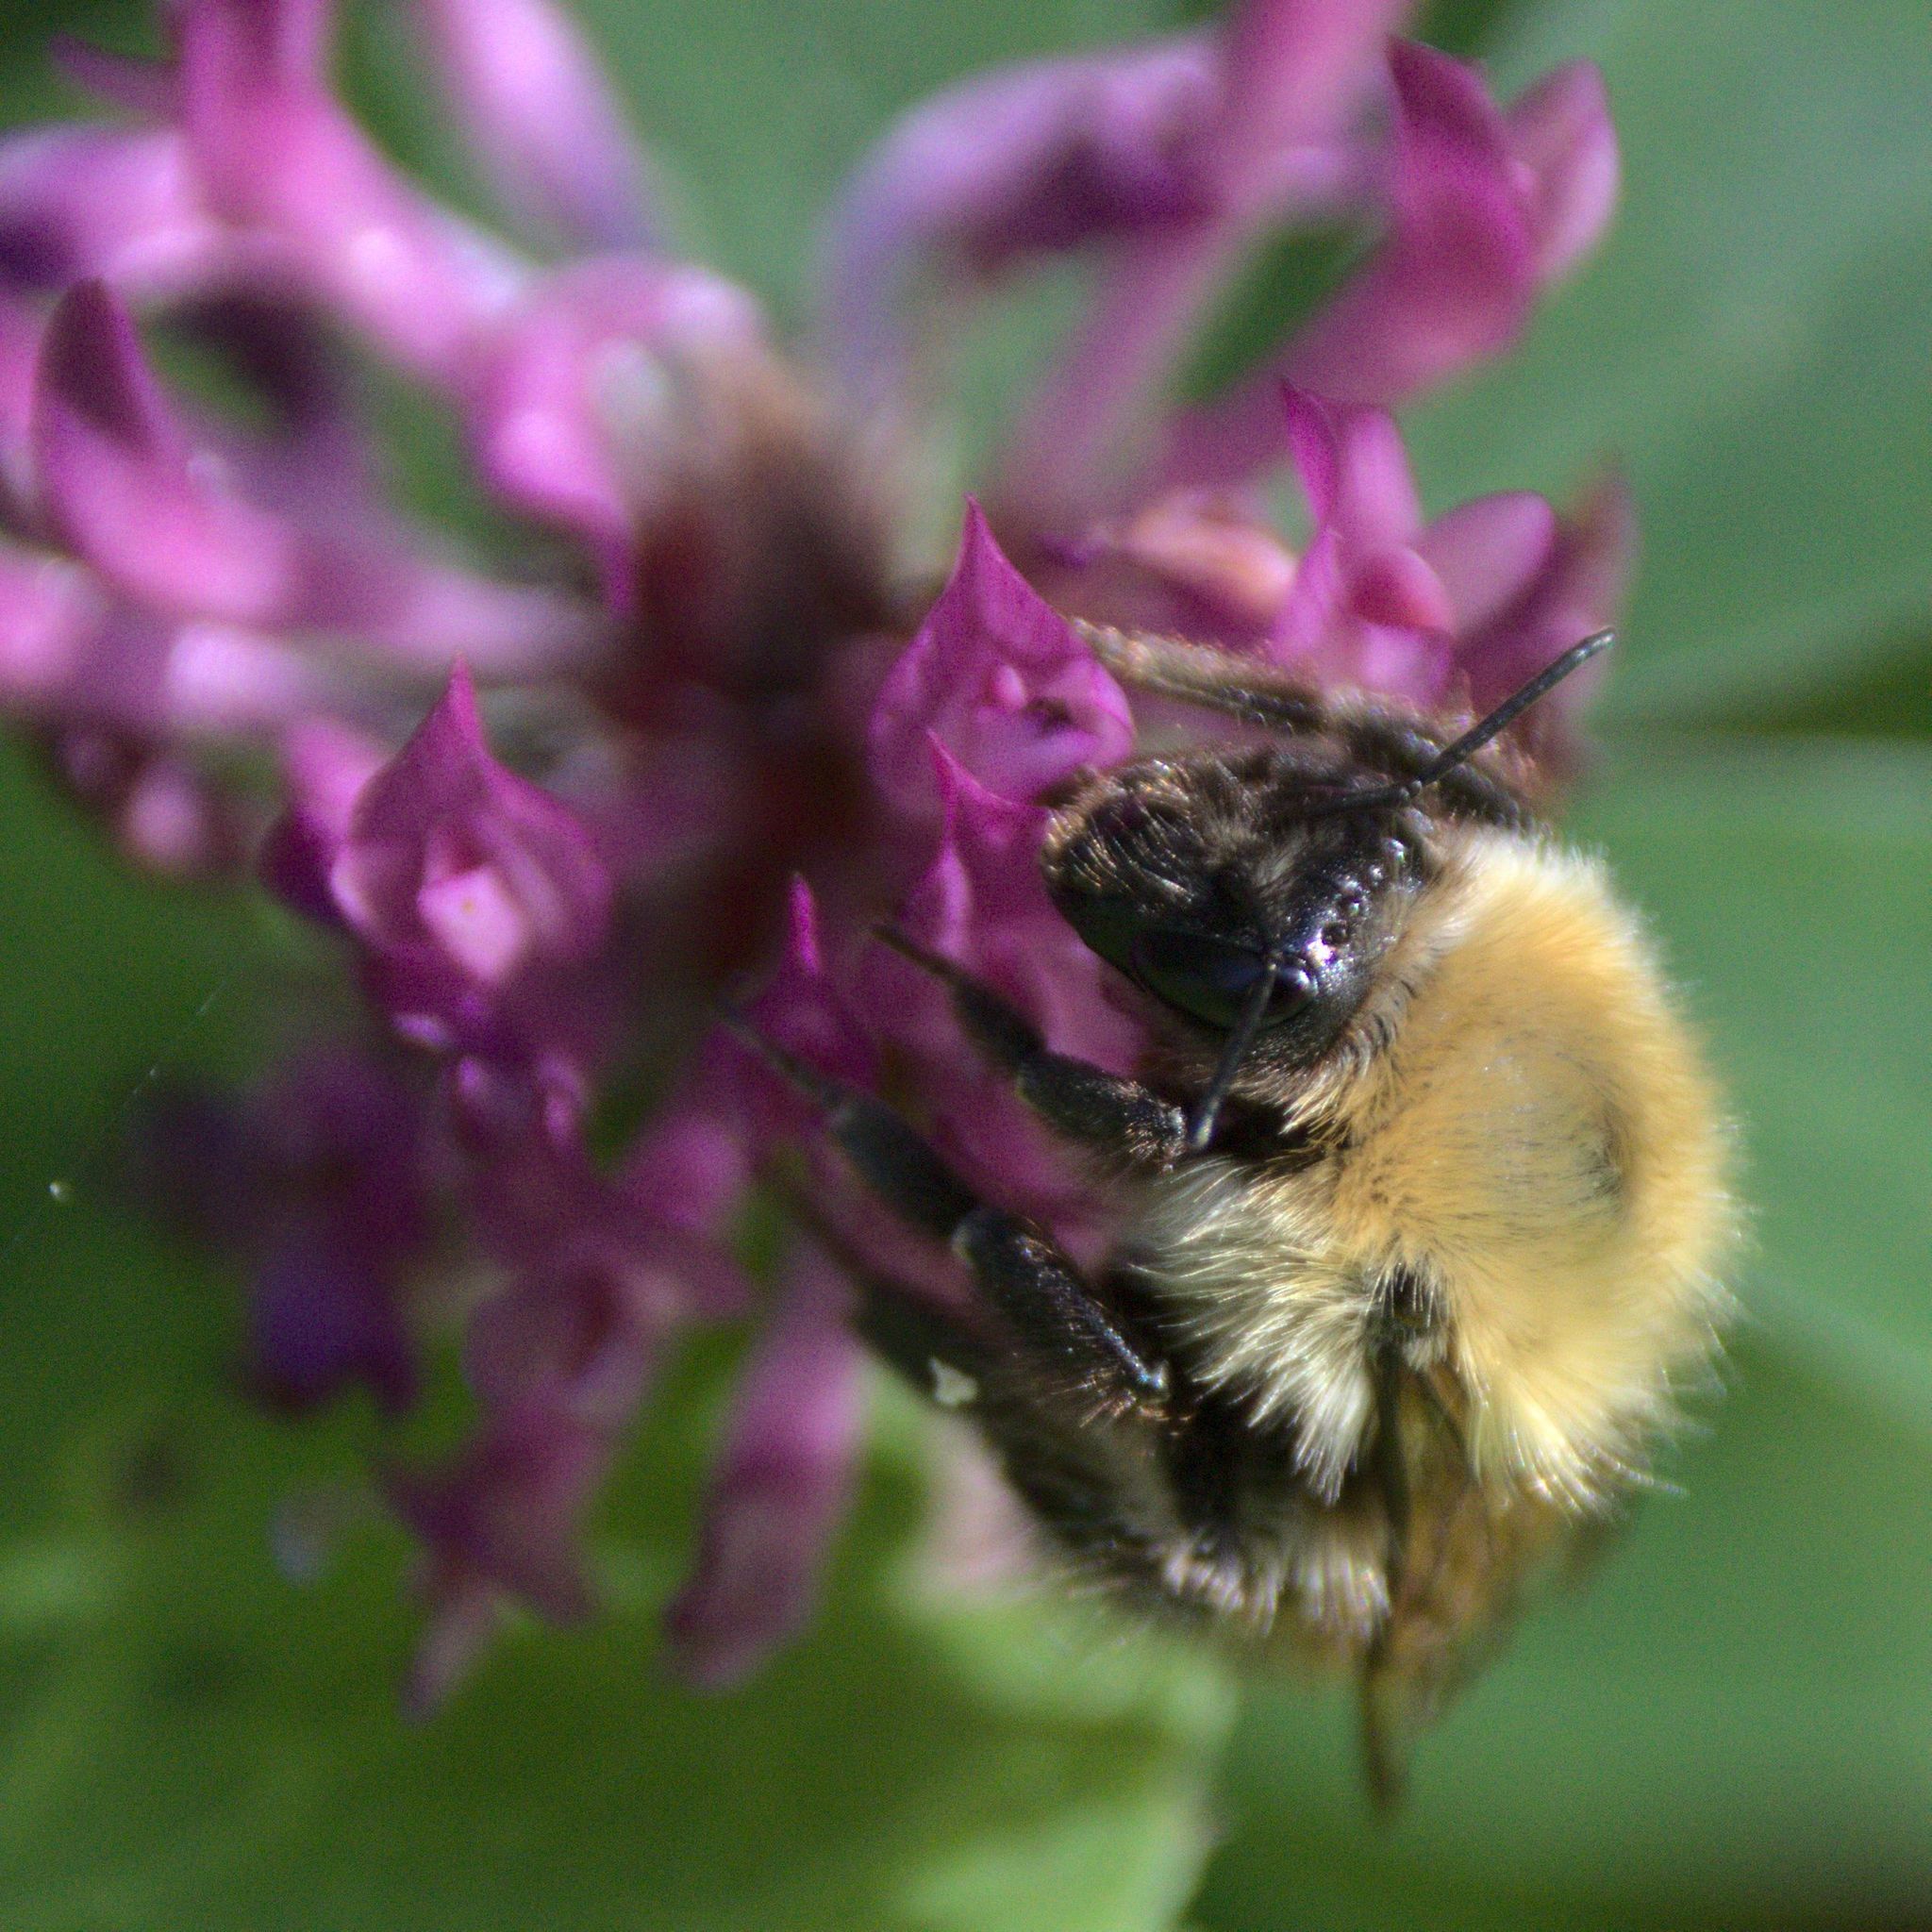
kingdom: Animalia
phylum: Arthropoda
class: Insecta
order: Hymenoptera
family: Apidae
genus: Bombus
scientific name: Bombus
